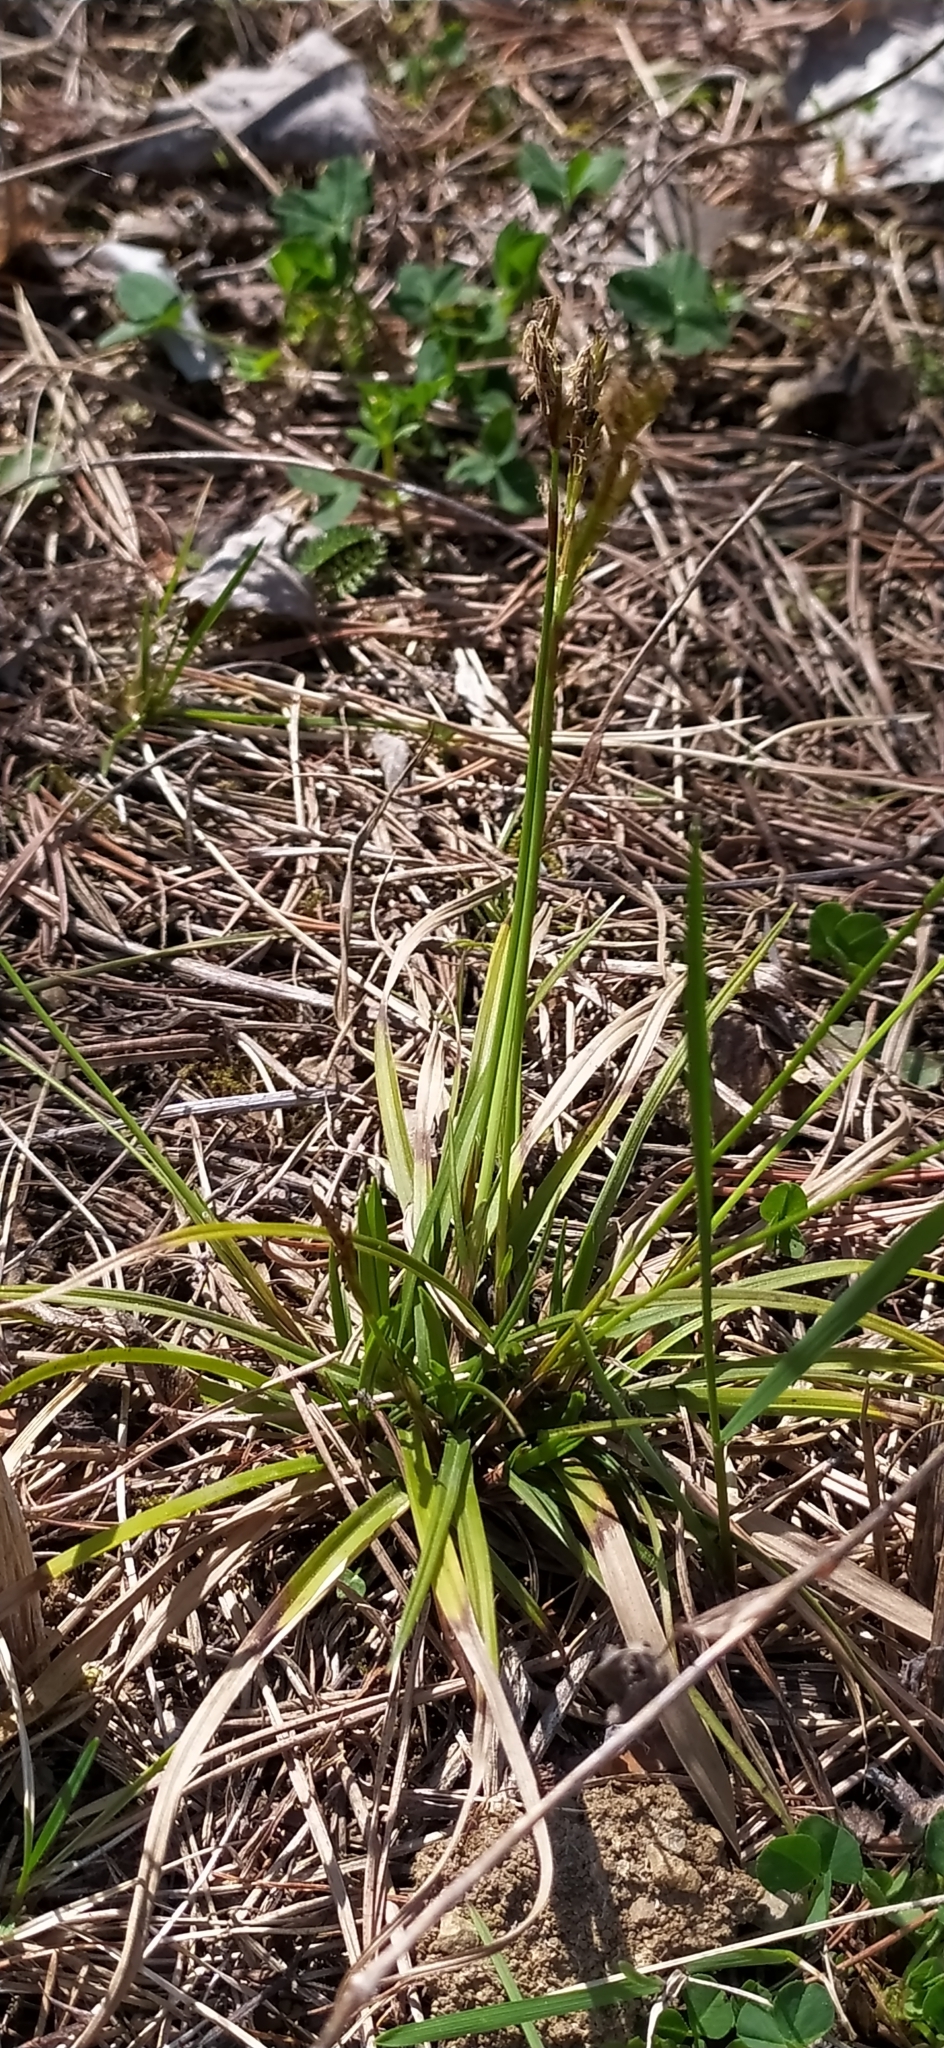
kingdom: Plantae
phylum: Tracheophyta
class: Liliopsida
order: Poales
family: Cyperaceae
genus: Carex
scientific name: Carex digitata
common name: Fingered sedge
